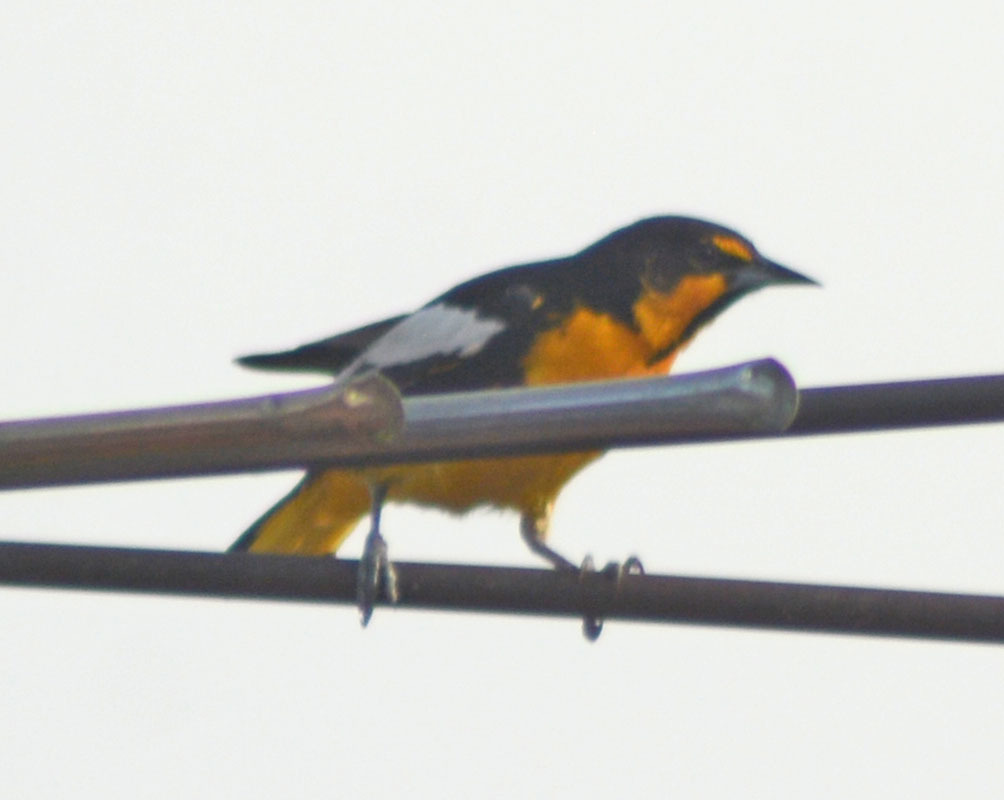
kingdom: Animalia
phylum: Chordata
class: Aves
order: Passeriformes
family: Icteridae
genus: Icterus
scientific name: Icterus abeillei
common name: Black-backed oriole
